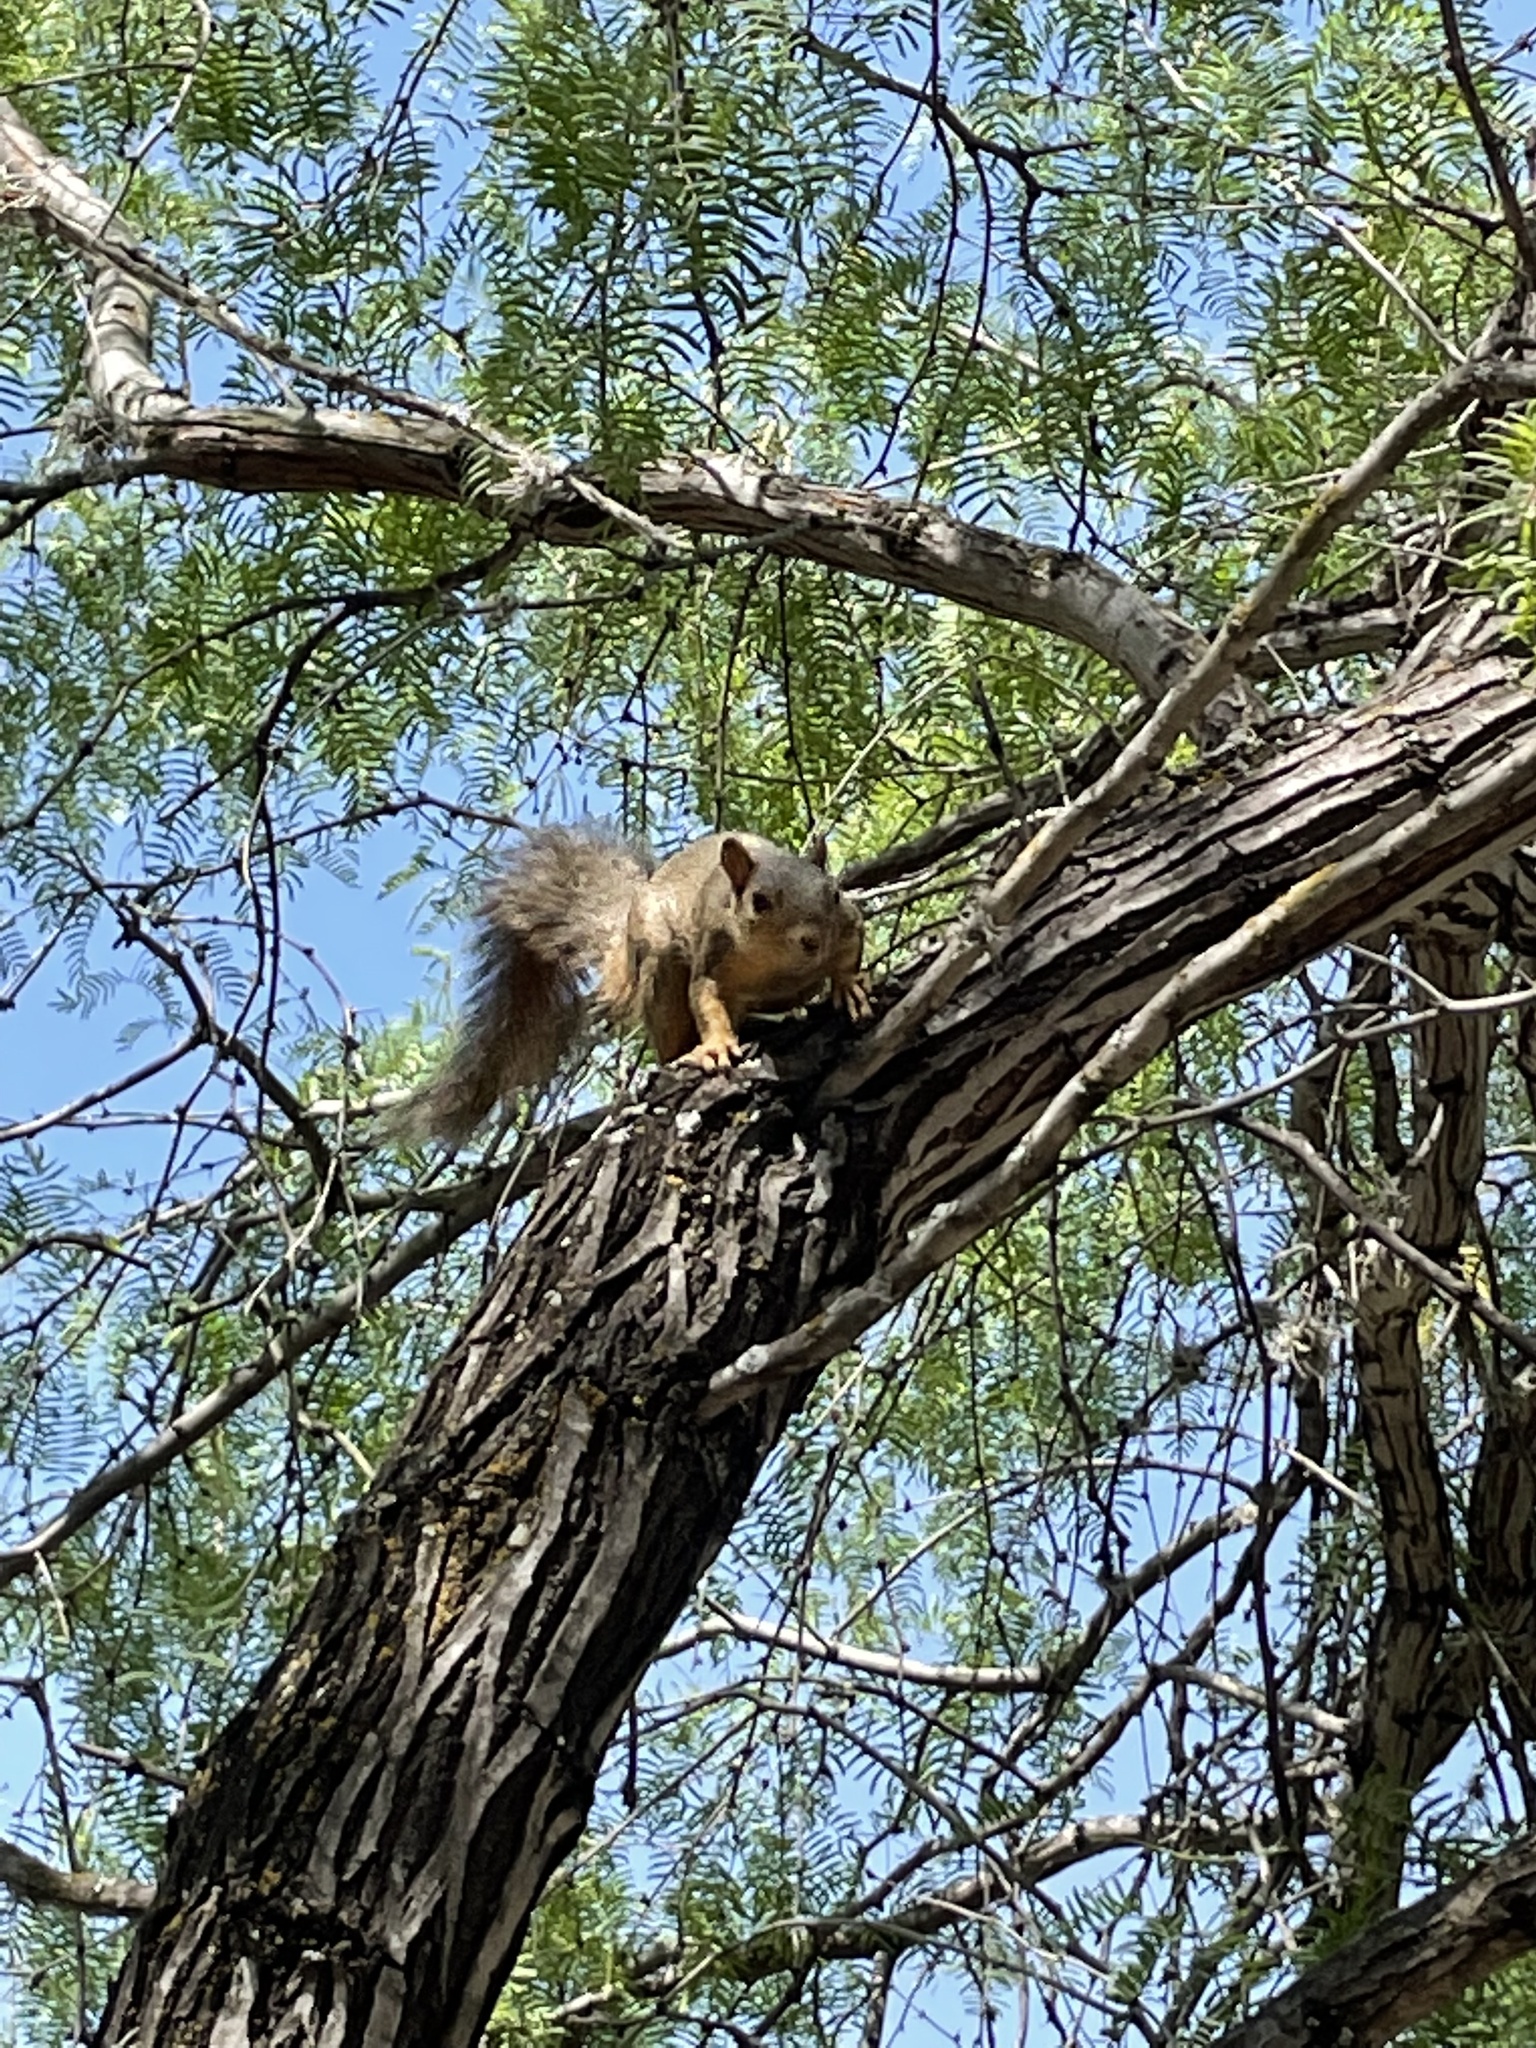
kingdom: Animalia
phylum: Chordata
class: Mammalia
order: Rodentia
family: Sciuridae
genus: Sciurus
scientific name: Sciurus niger
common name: Fox squirrel
